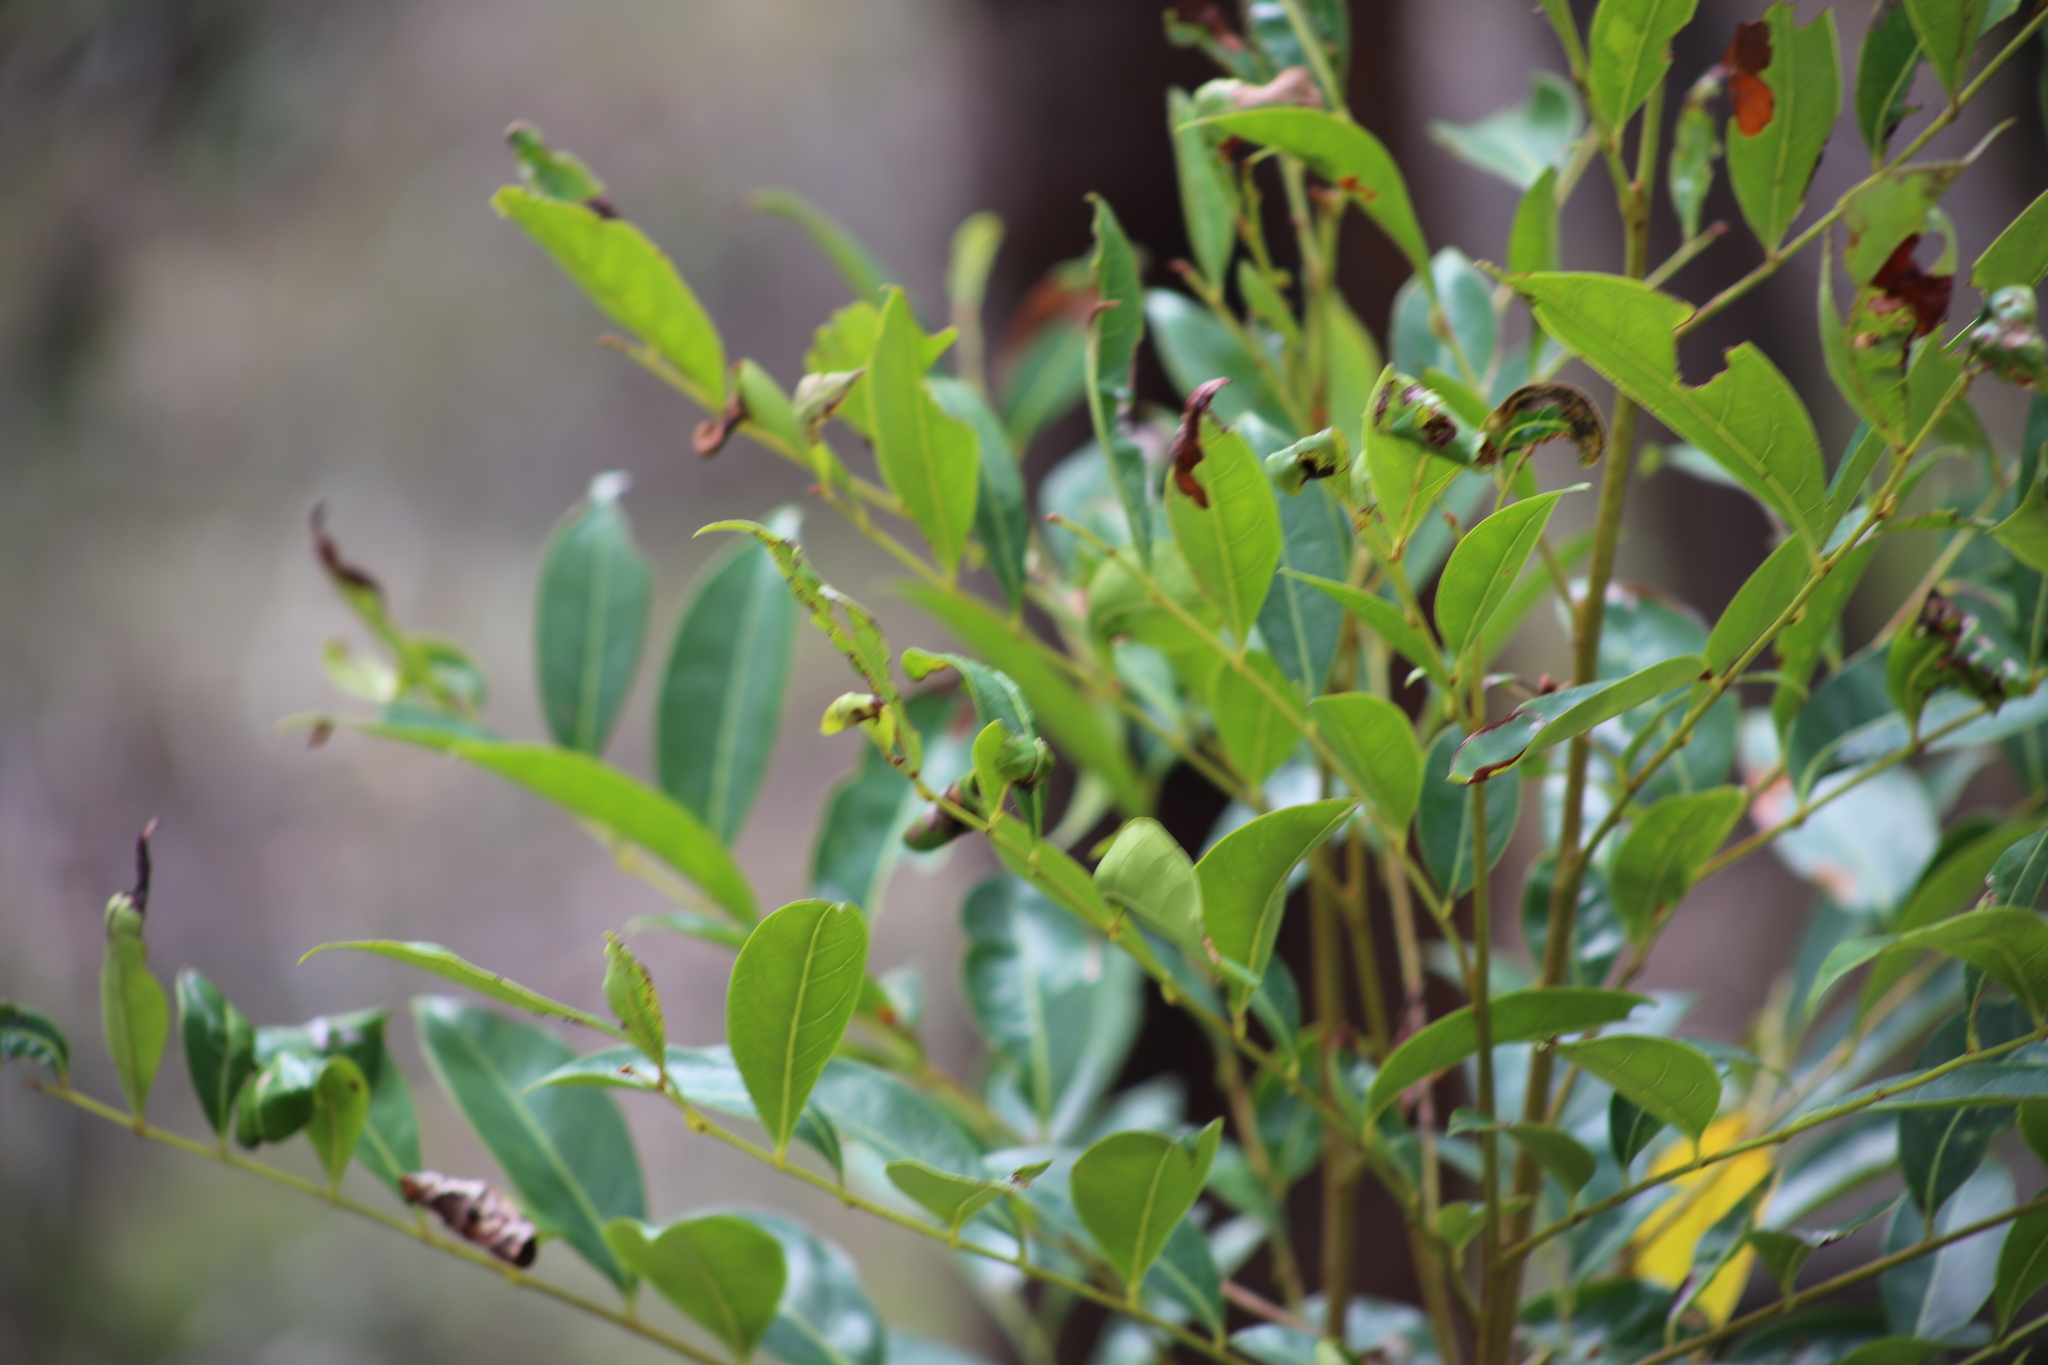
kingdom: Plantae
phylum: Tracheophyta
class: Magnoliopsida
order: Malpighiales
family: Phyllanthaceae
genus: Glochidion
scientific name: Glochidion ferdinandi
